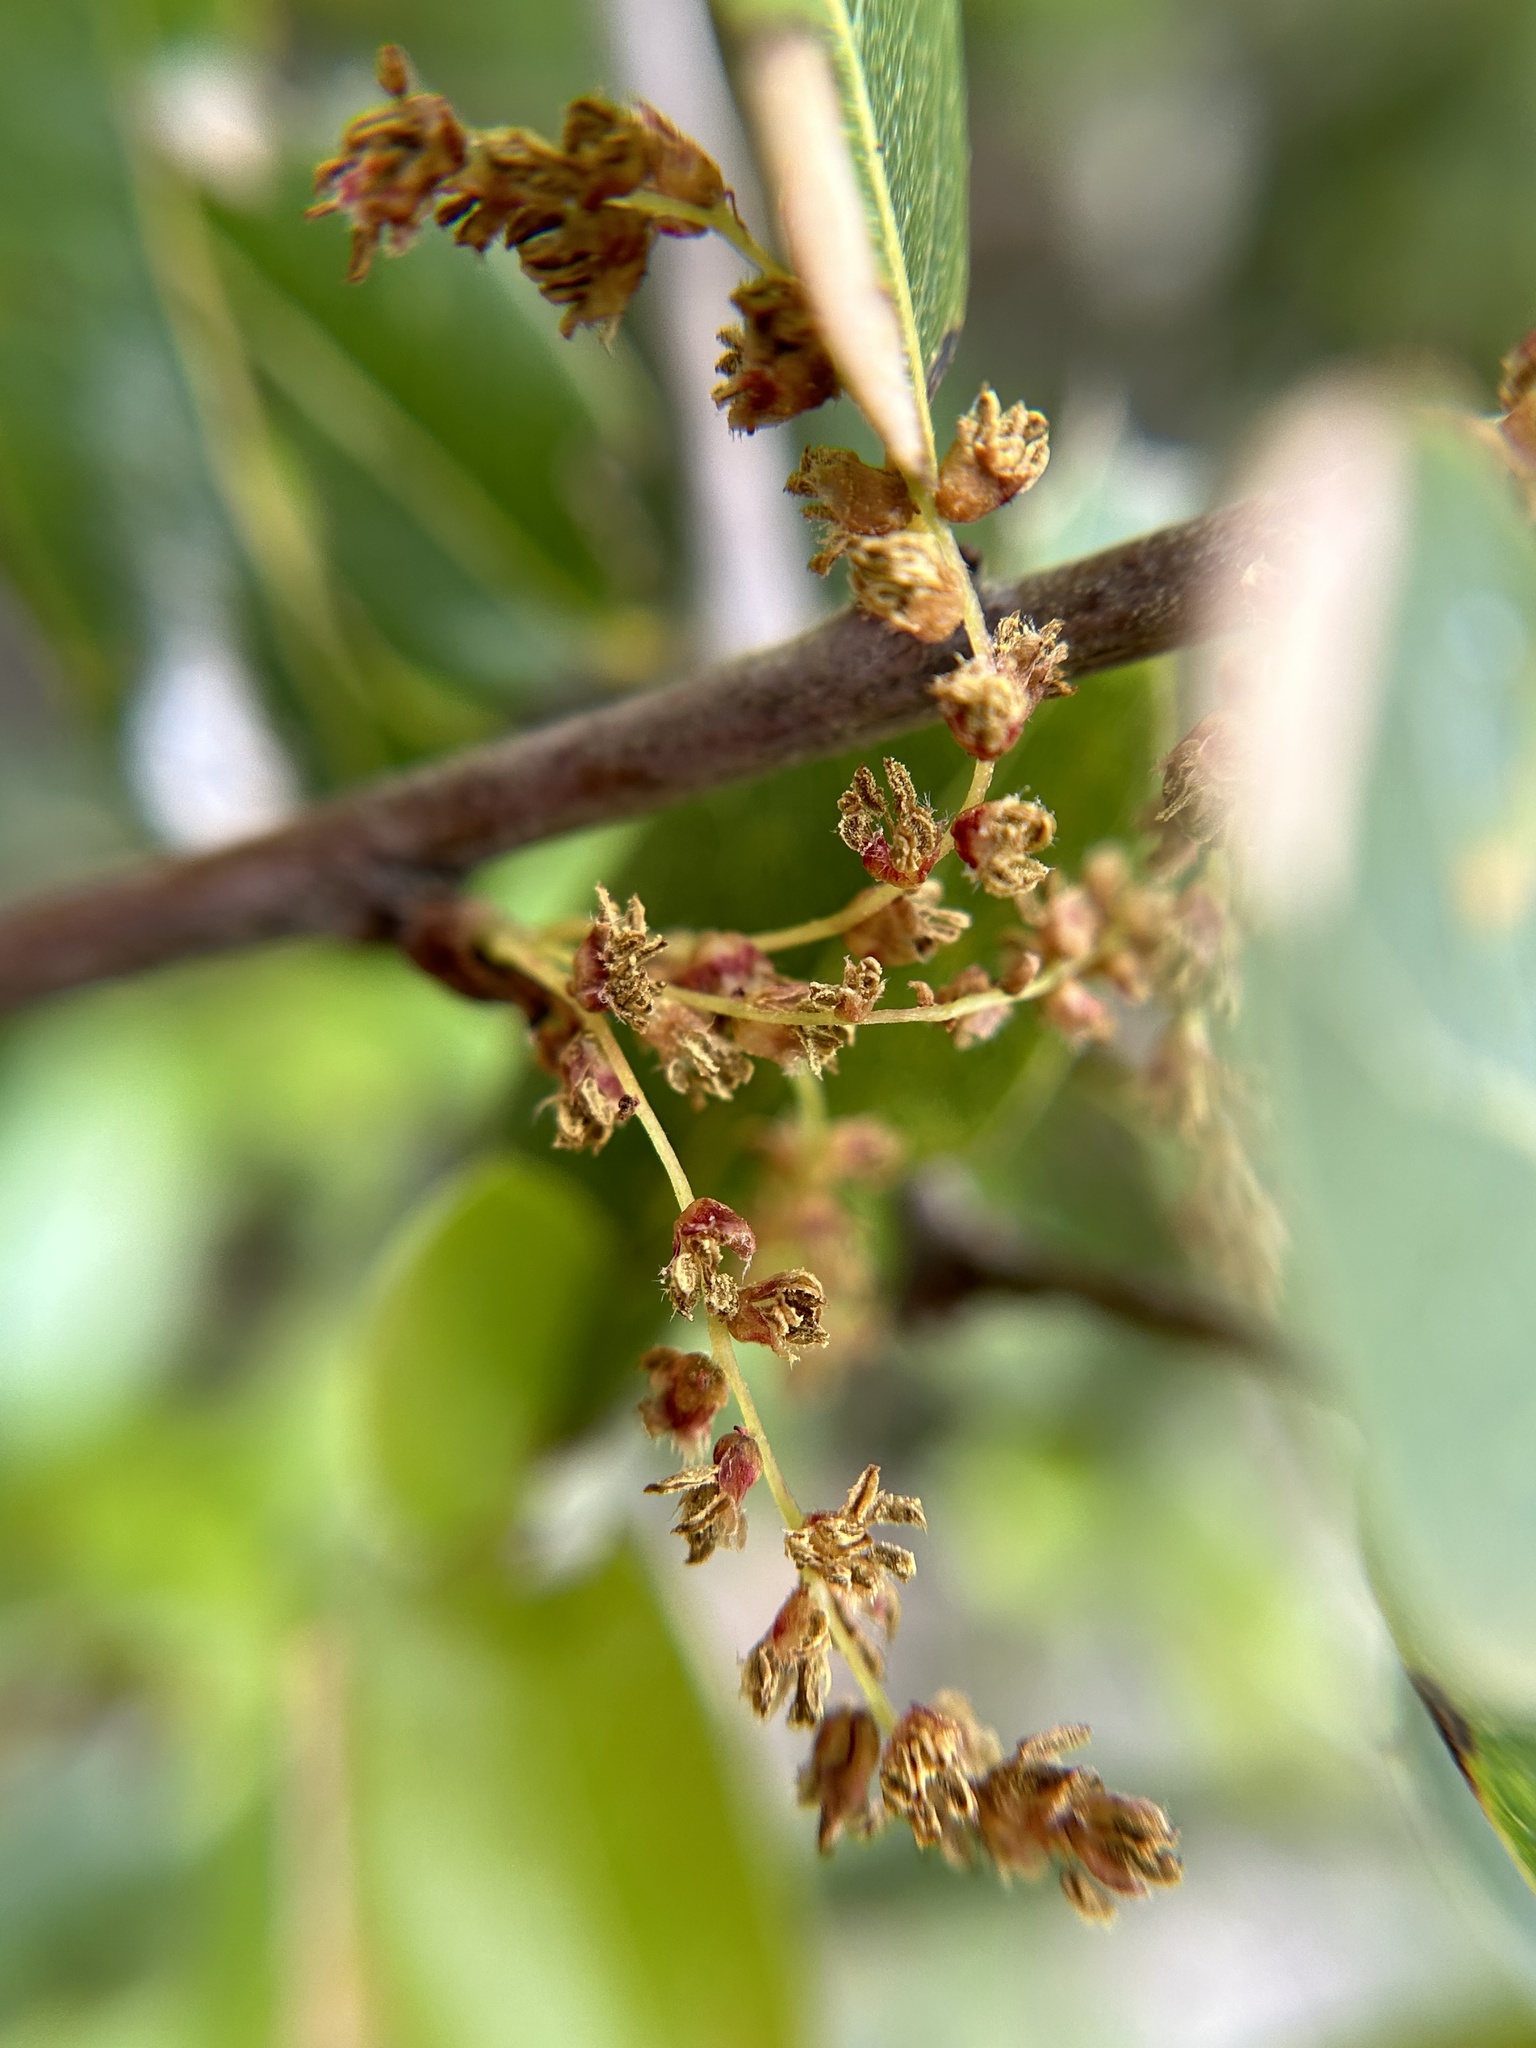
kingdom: Plantae
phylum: Tracheophyta
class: Magnoliopsida
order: Fagales
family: Fagaceae
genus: Quercus
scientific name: Quercus parvula
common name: Santa cruz island oak
